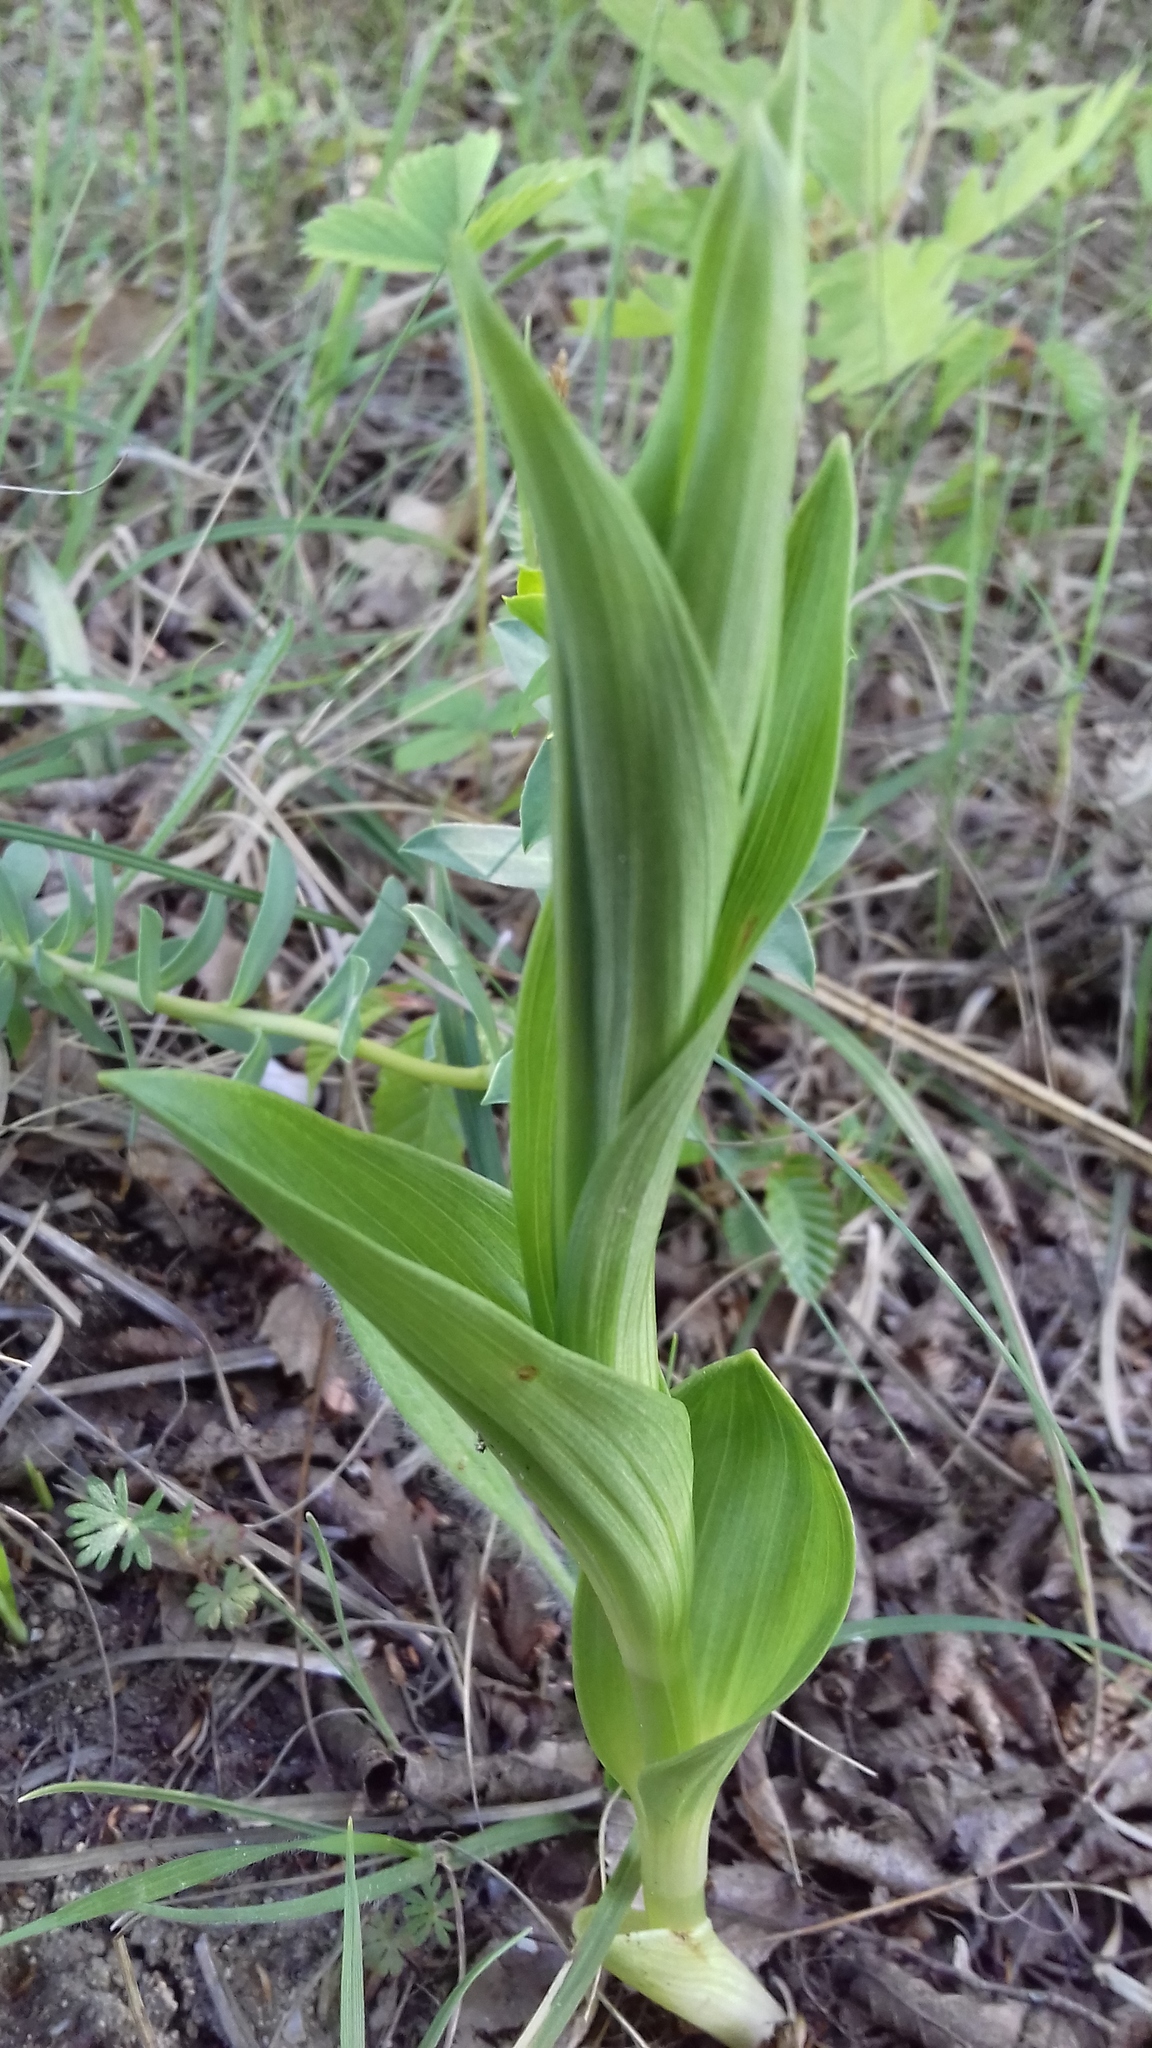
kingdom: Plantae
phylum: Tracheophyta
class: Liliopsida
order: Asparagales
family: Orchidaceae
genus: Cephalanthera
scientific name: Cephalanthera damasonium
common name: White helleborine
